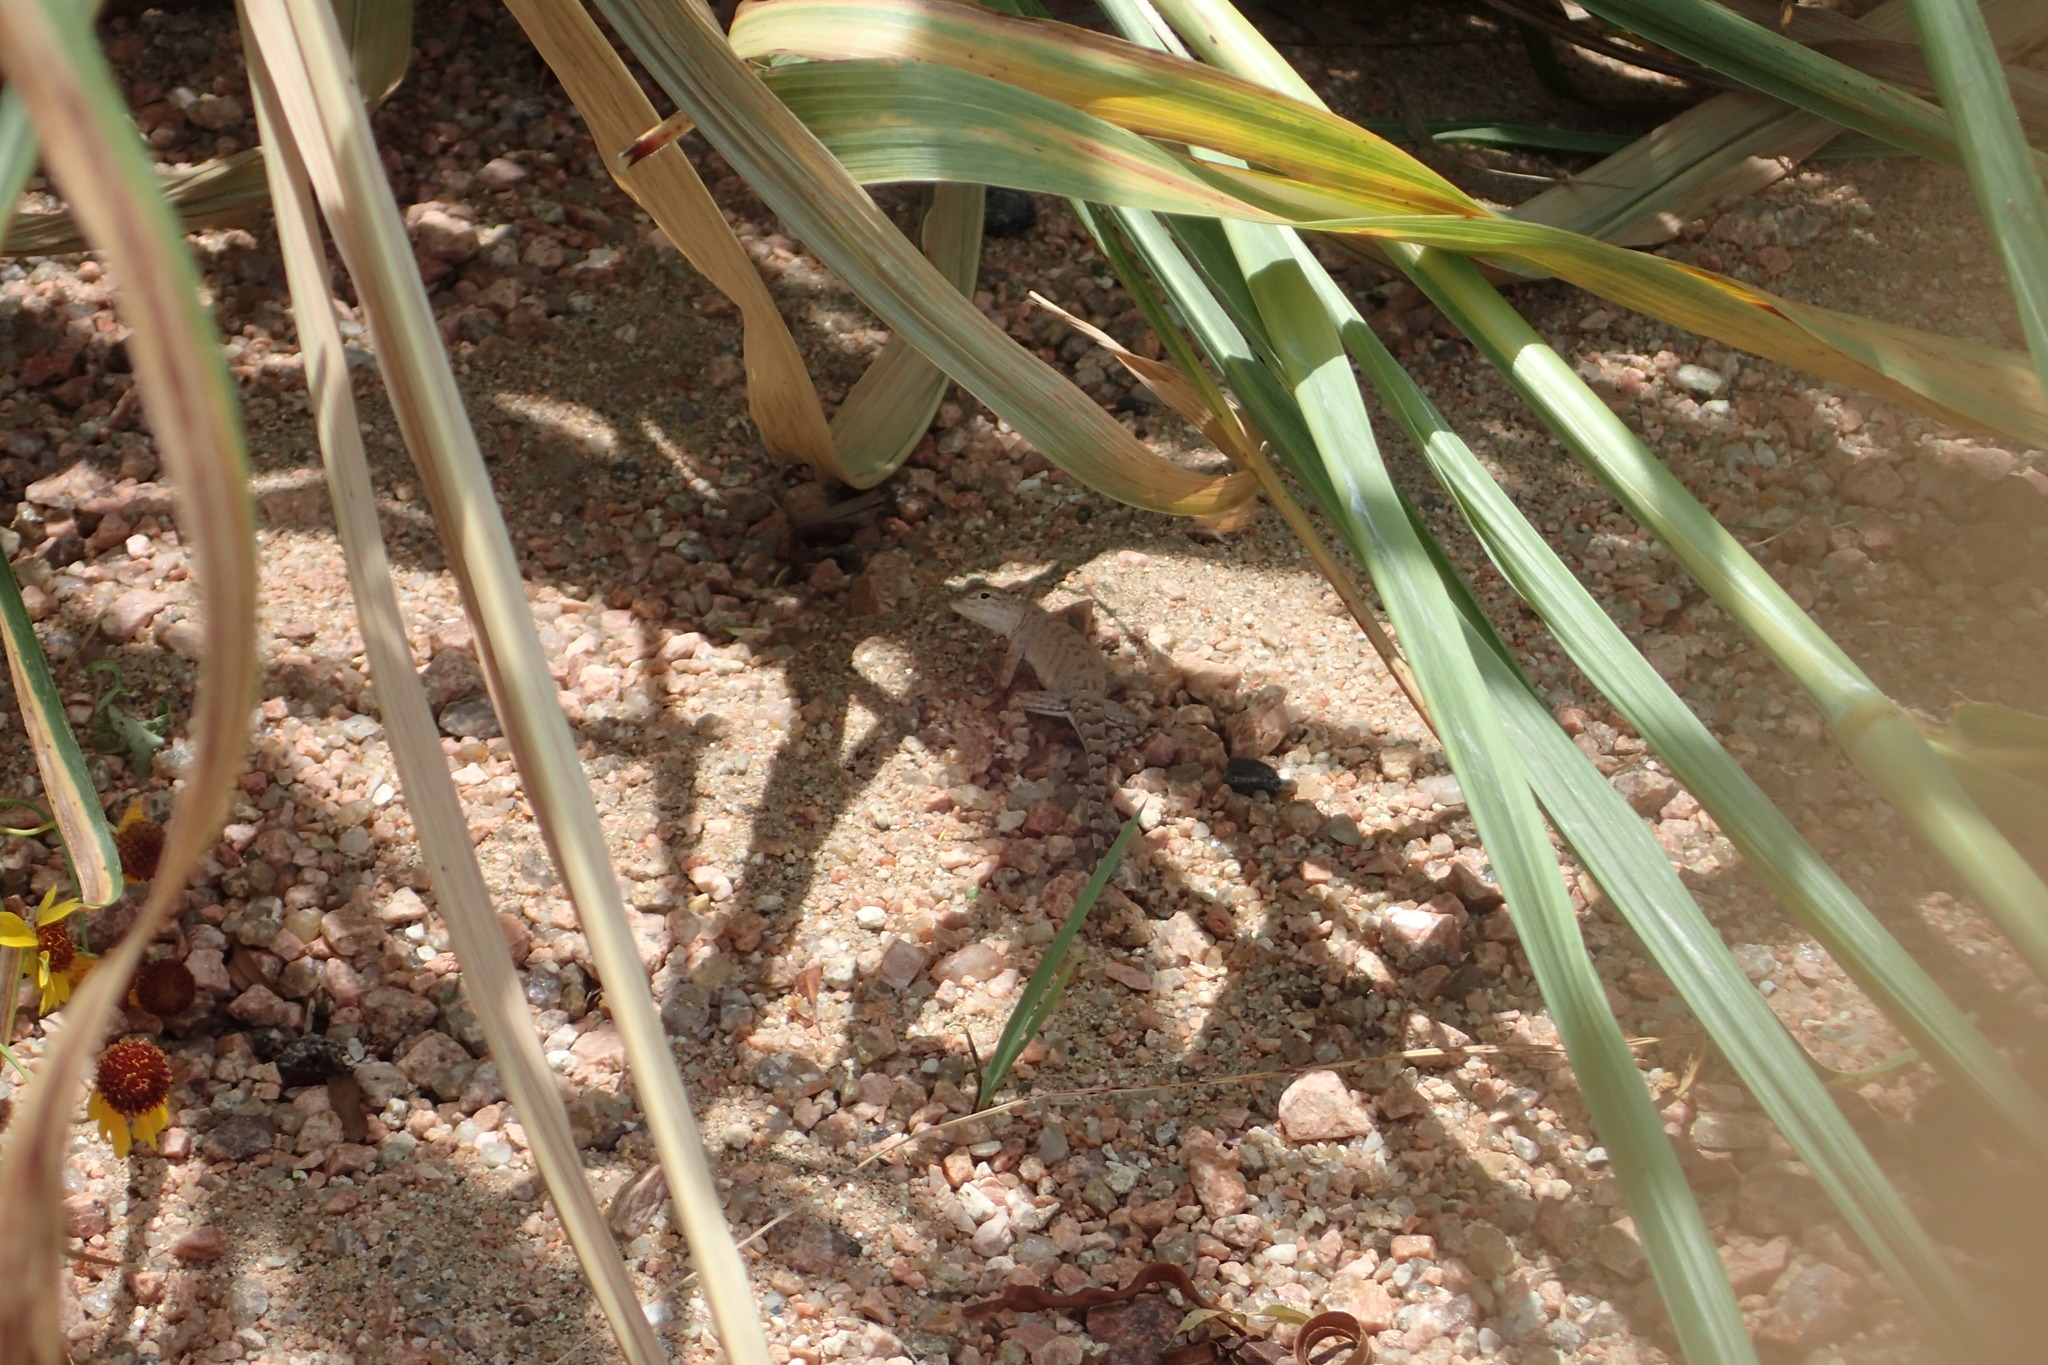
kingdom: Animalia
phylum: Chordata
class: Squamata
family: Phrynosomatidae
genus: Cophosaurus
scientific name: Cophosaurus texanus
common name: Greater earless lizard
